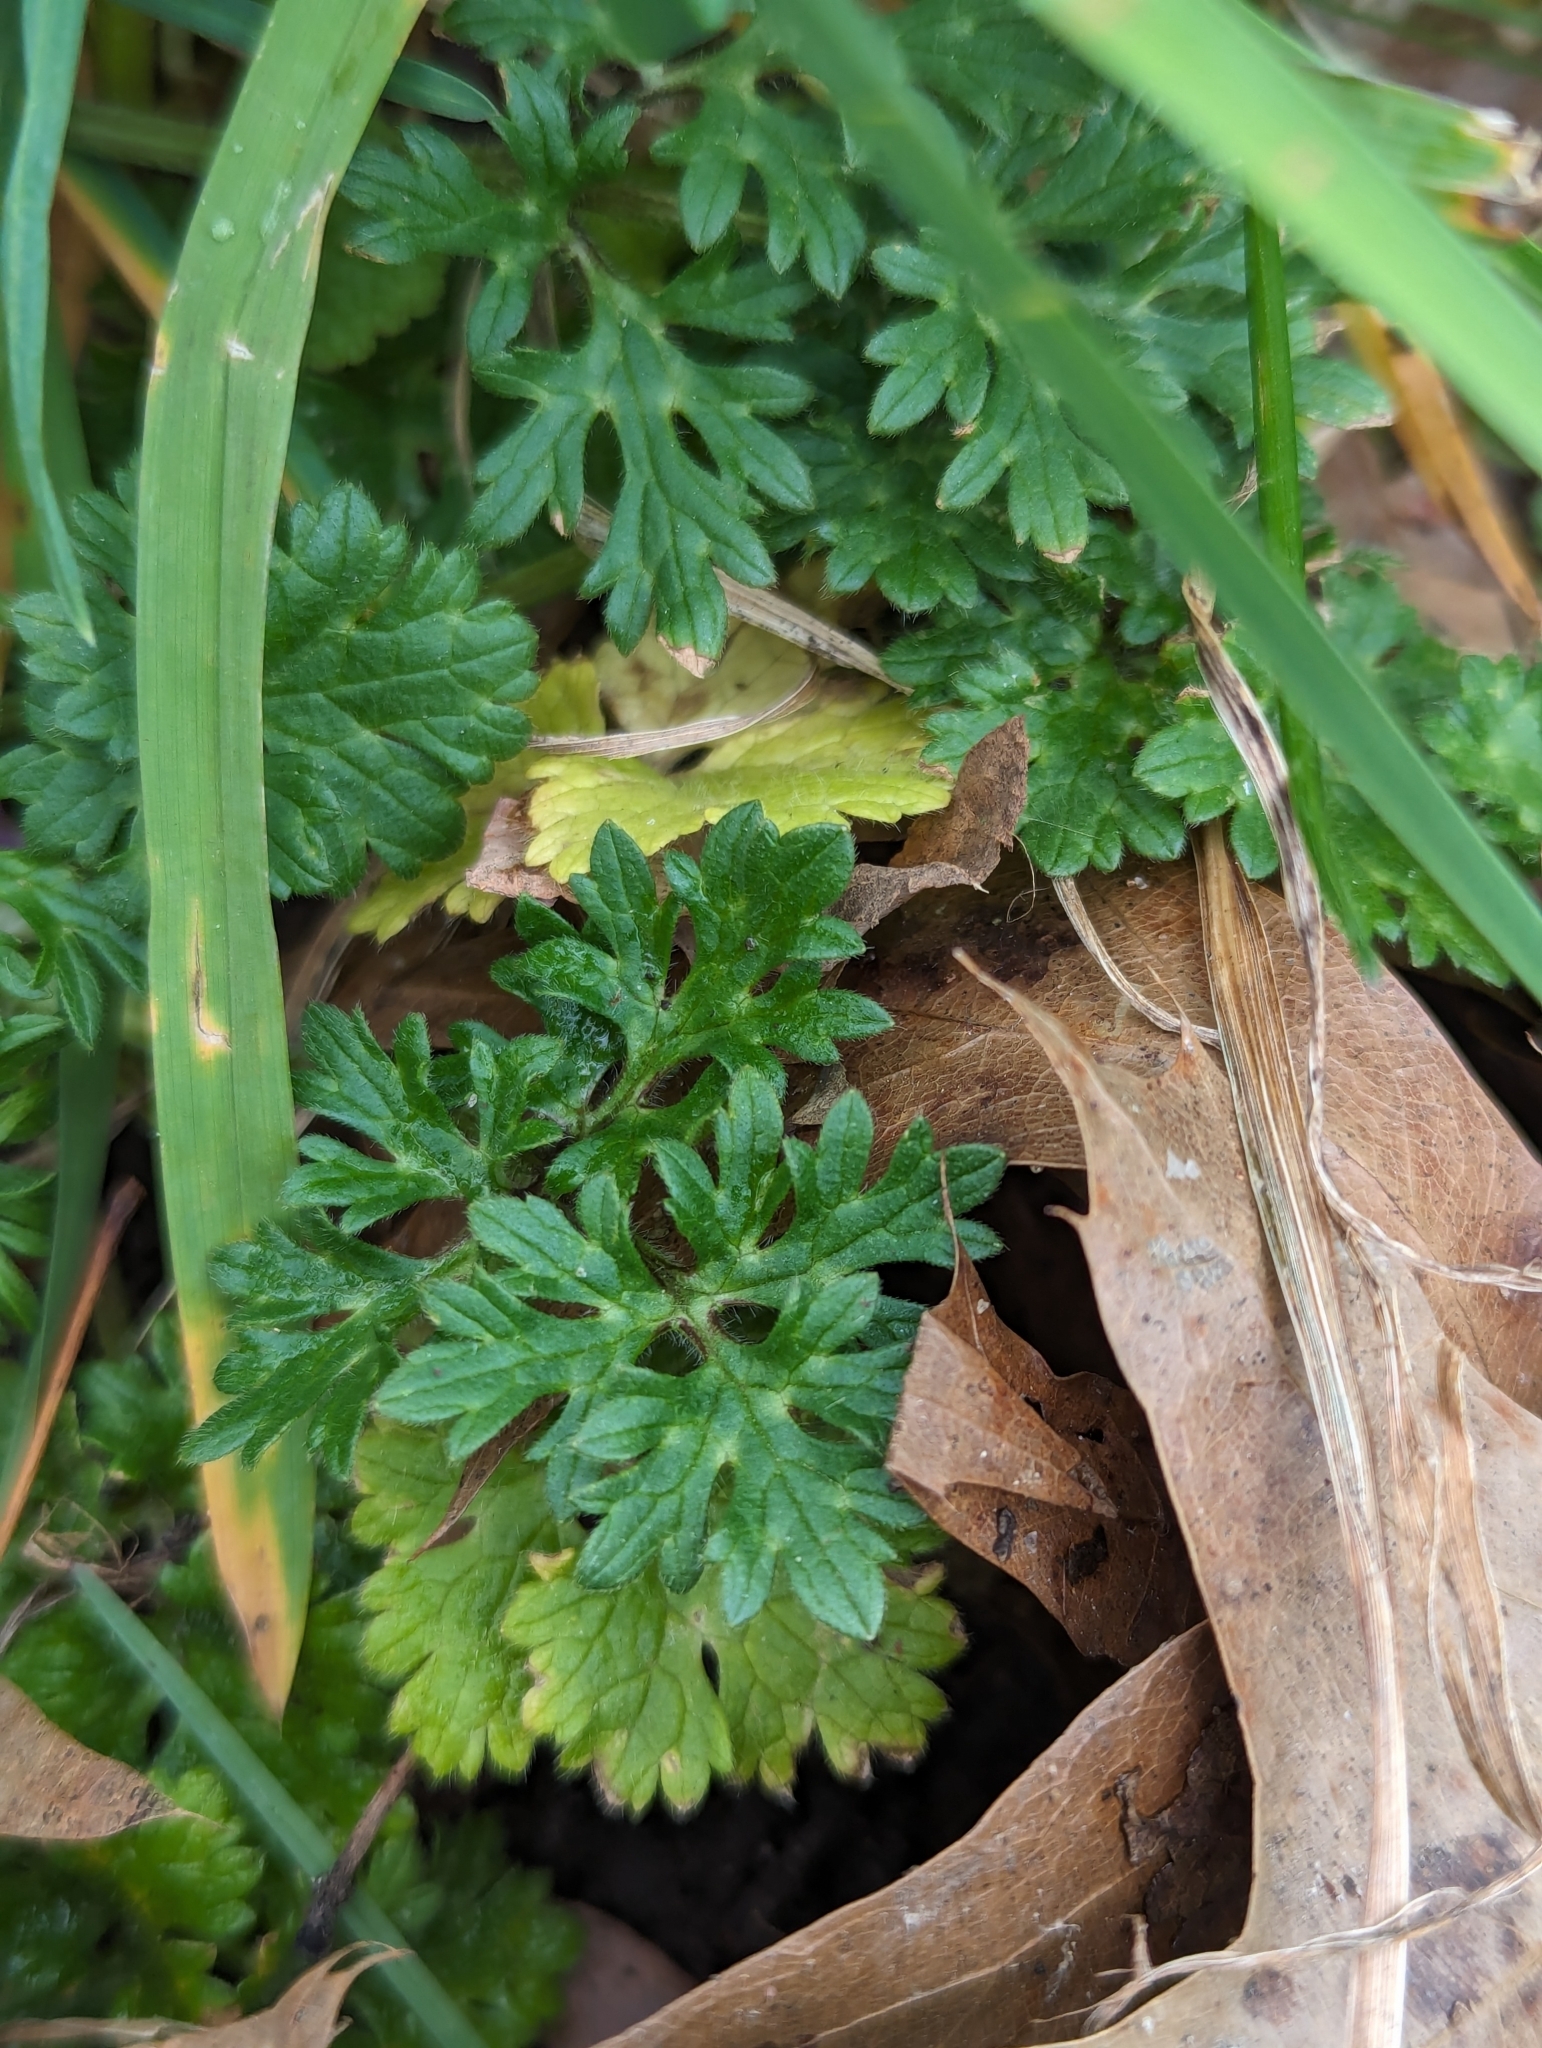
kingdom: Plantae
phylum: Tracheophyta
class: Magnoliopsida
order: Ranunculales
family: Ranunculaceae
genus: Ranunculus
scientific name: Ranunculus bulbosus
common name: Bulbous buttercup
